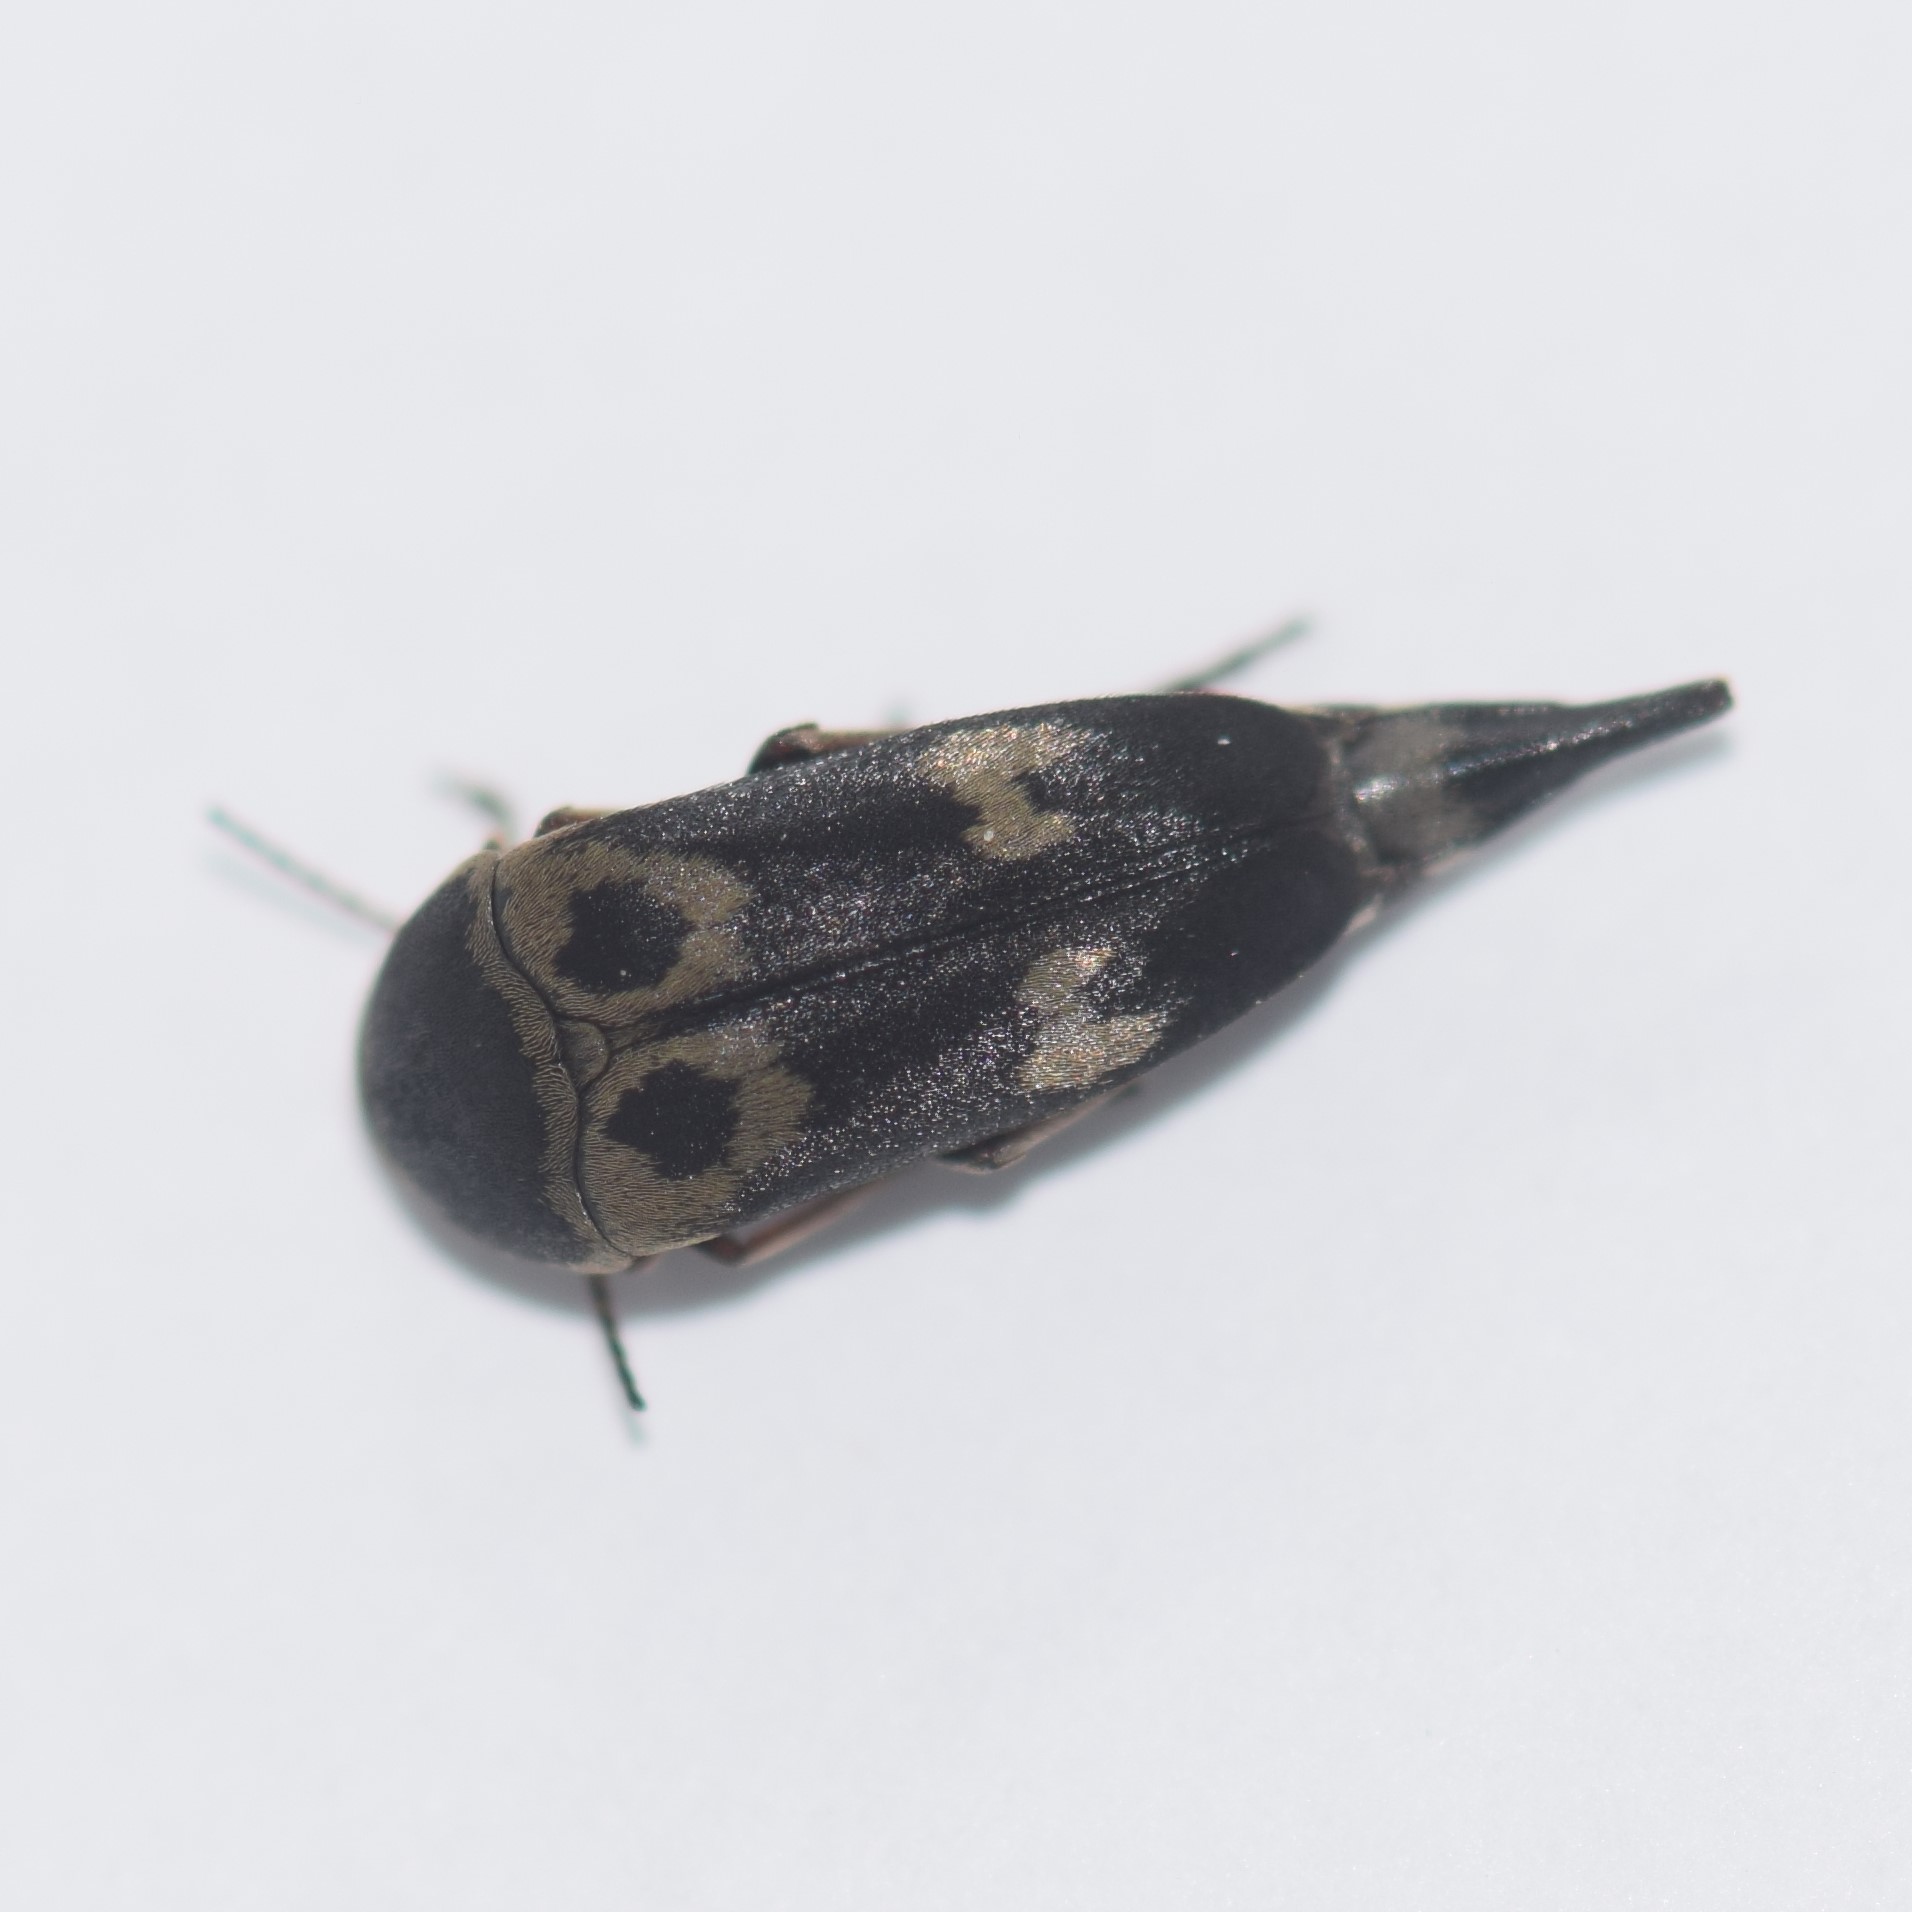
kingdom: Animalia
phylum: Arthropoda
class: Insecta
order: Coleoptera
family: Mordellidae
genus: Glipa
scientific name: Glipa oculata
